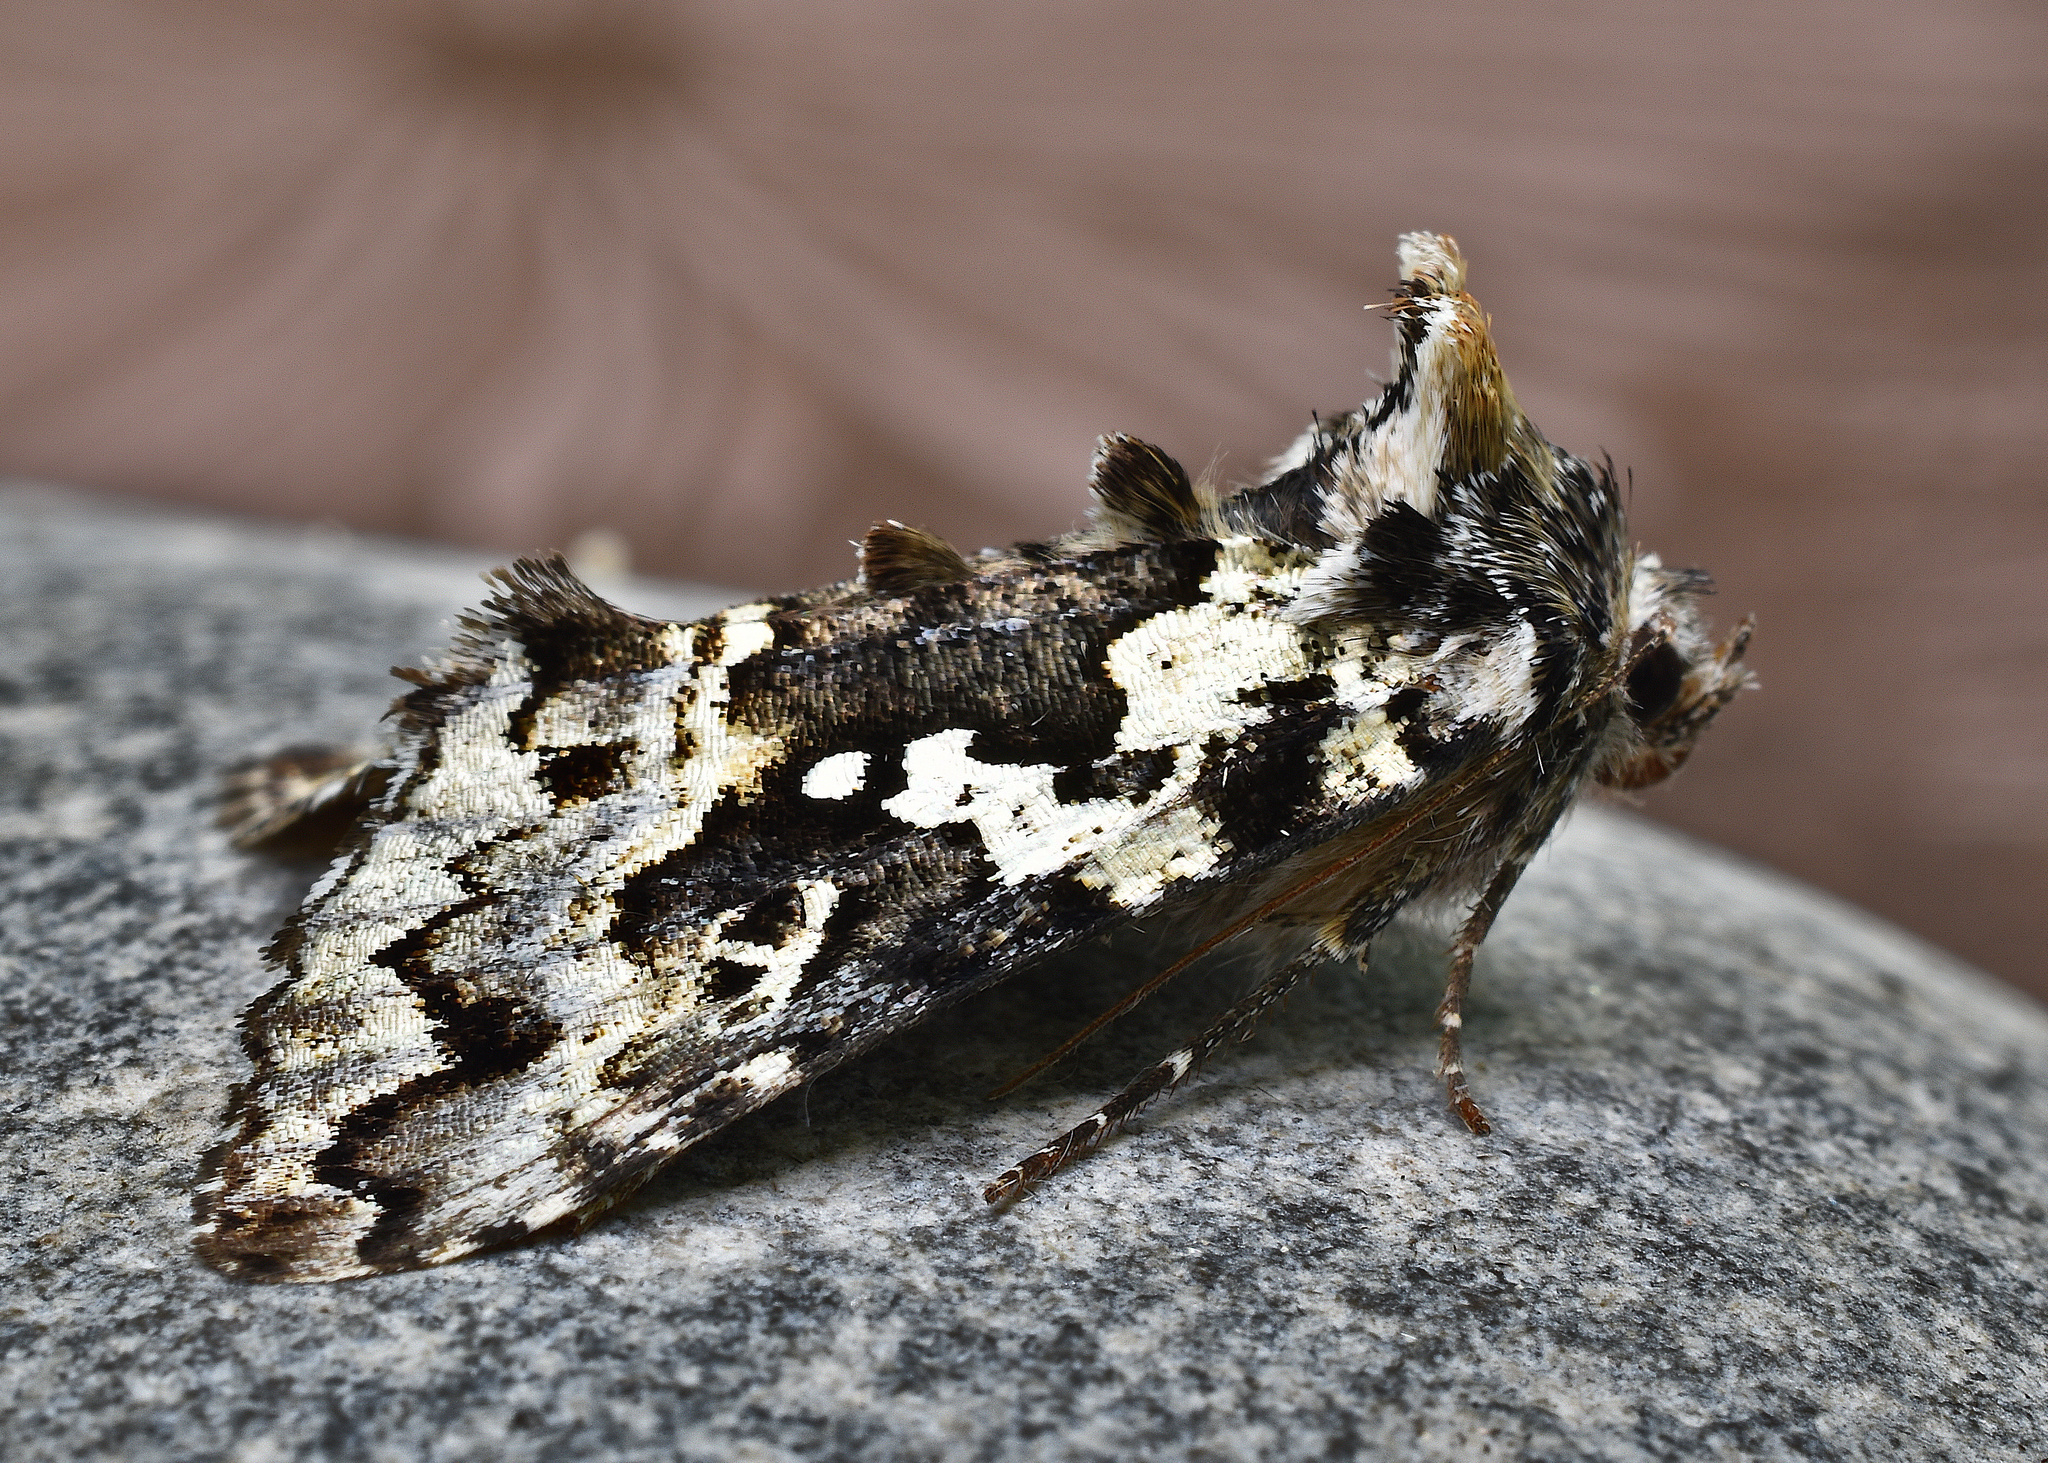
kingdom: Animalia
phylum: Arthropoda
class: Insecta
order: Lepidoptera
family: Noctuidae
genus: Syngrapha
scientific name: Syngrapha rectangula
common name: Angulated cutworm
